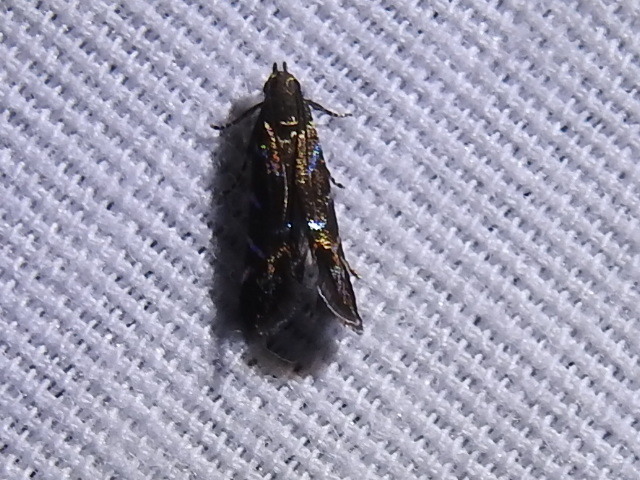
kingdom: Animalia
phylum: Arthropoda
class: Insecta
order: Lepidoptera
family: Gelechiidae
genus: Strobisia
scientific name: Strobisia proserpinella
